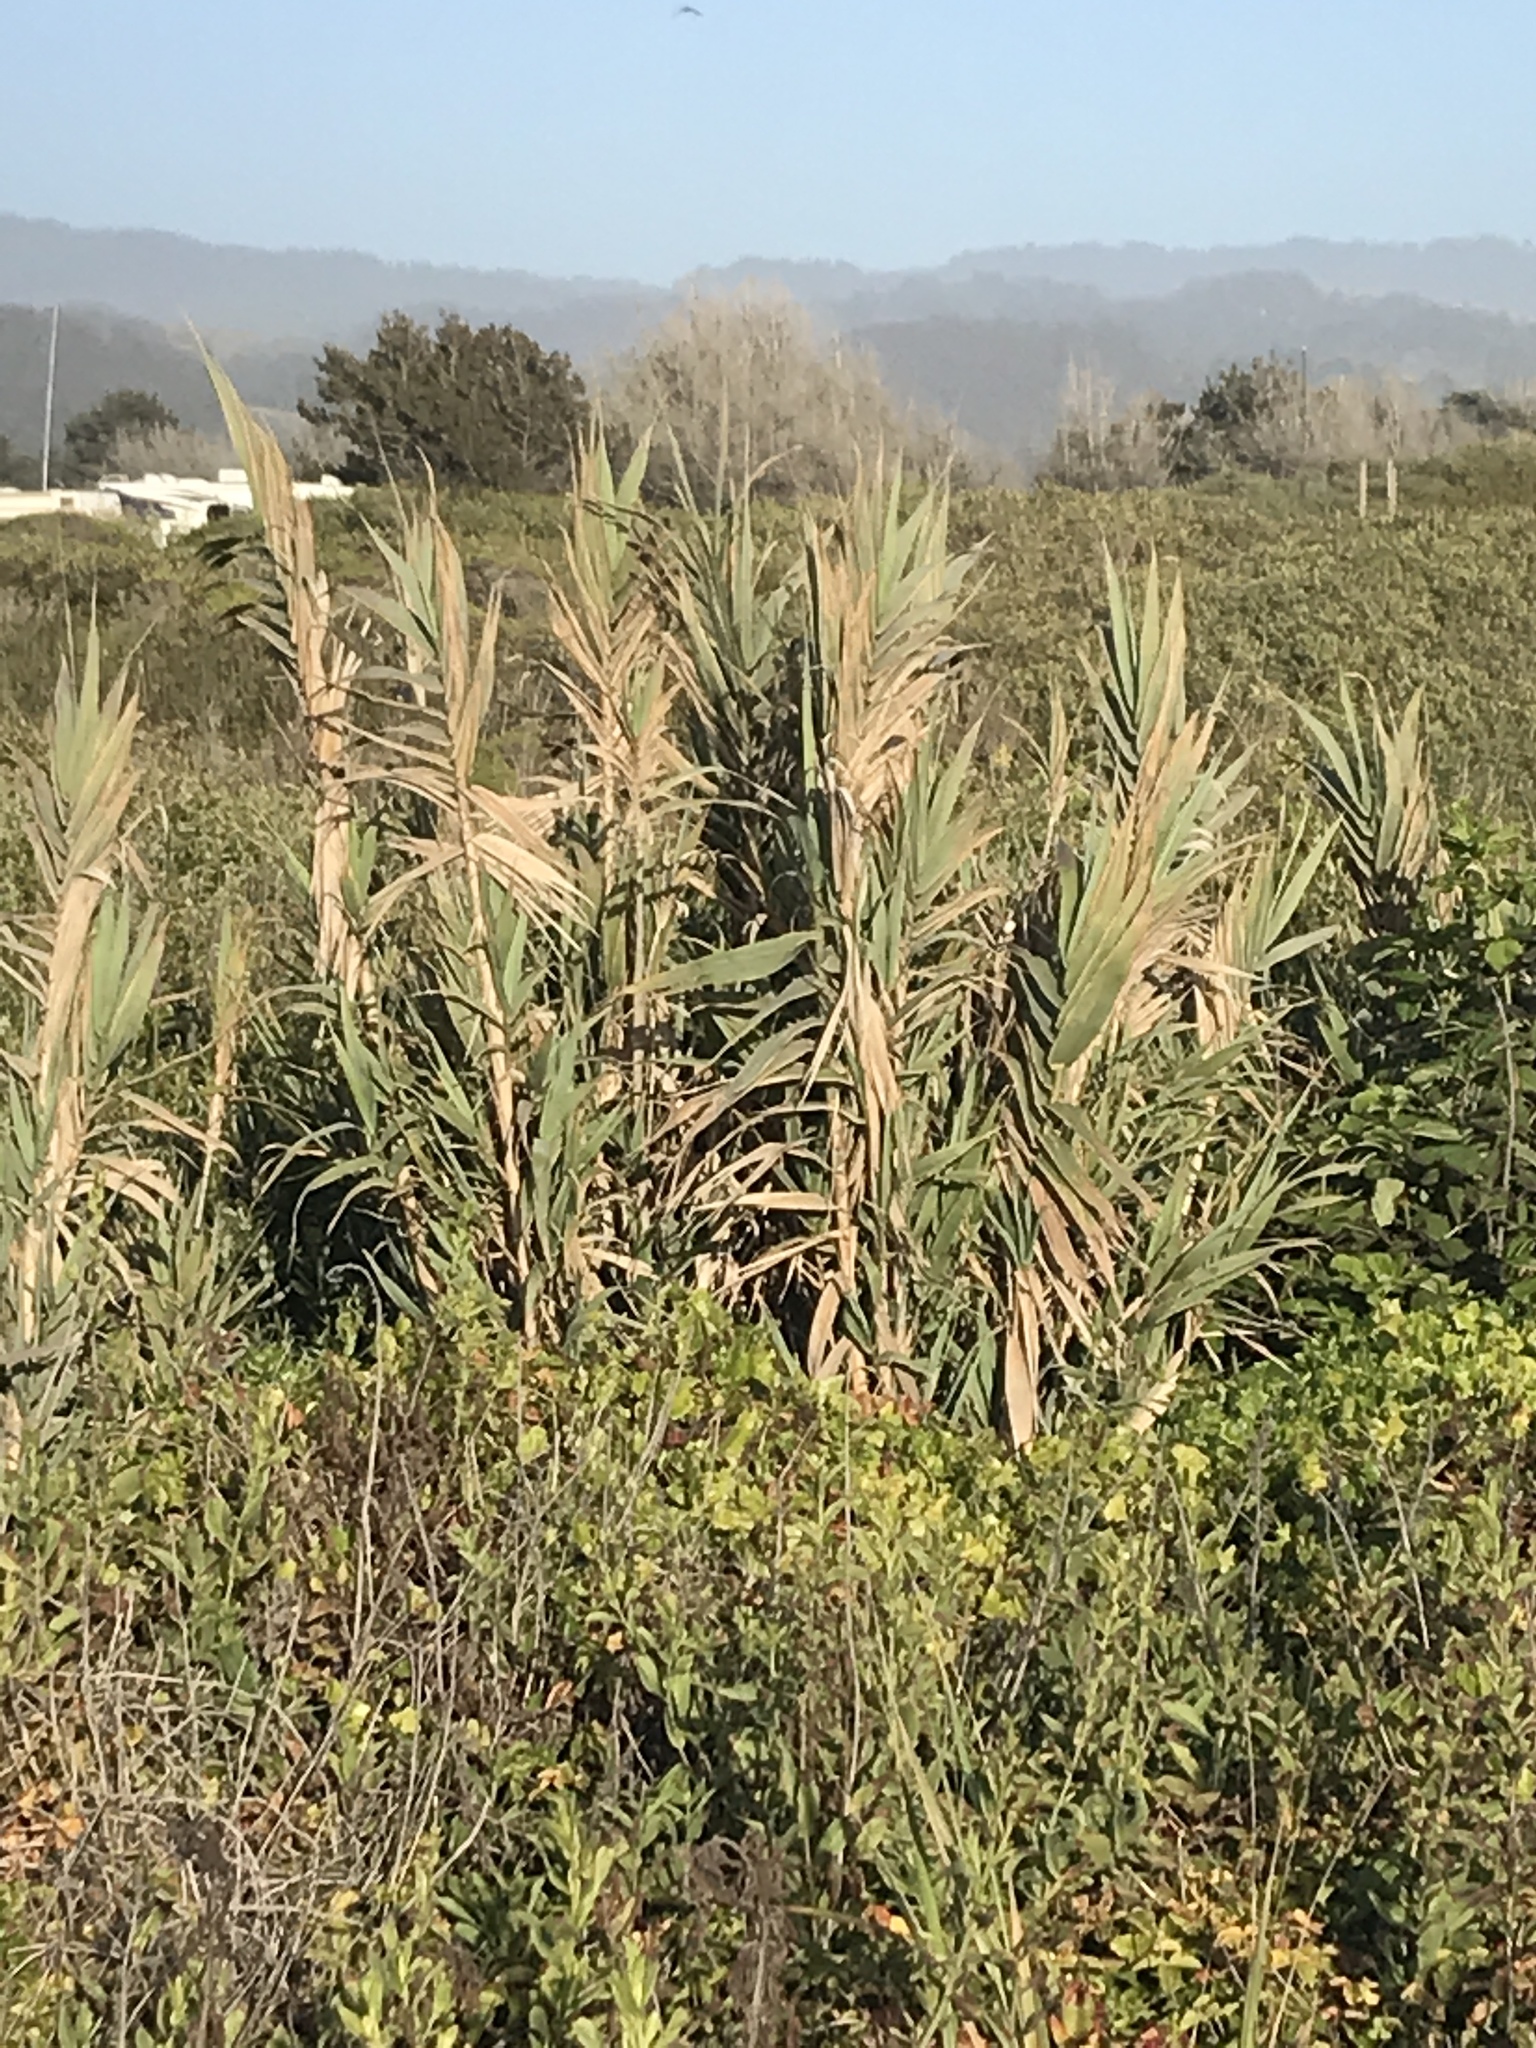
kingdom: Plantae
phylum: Tracheophyta
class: Liliopsida
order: Poales
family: Poaceae
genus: Arundo
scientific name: Arundo donax
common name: Giant reed
